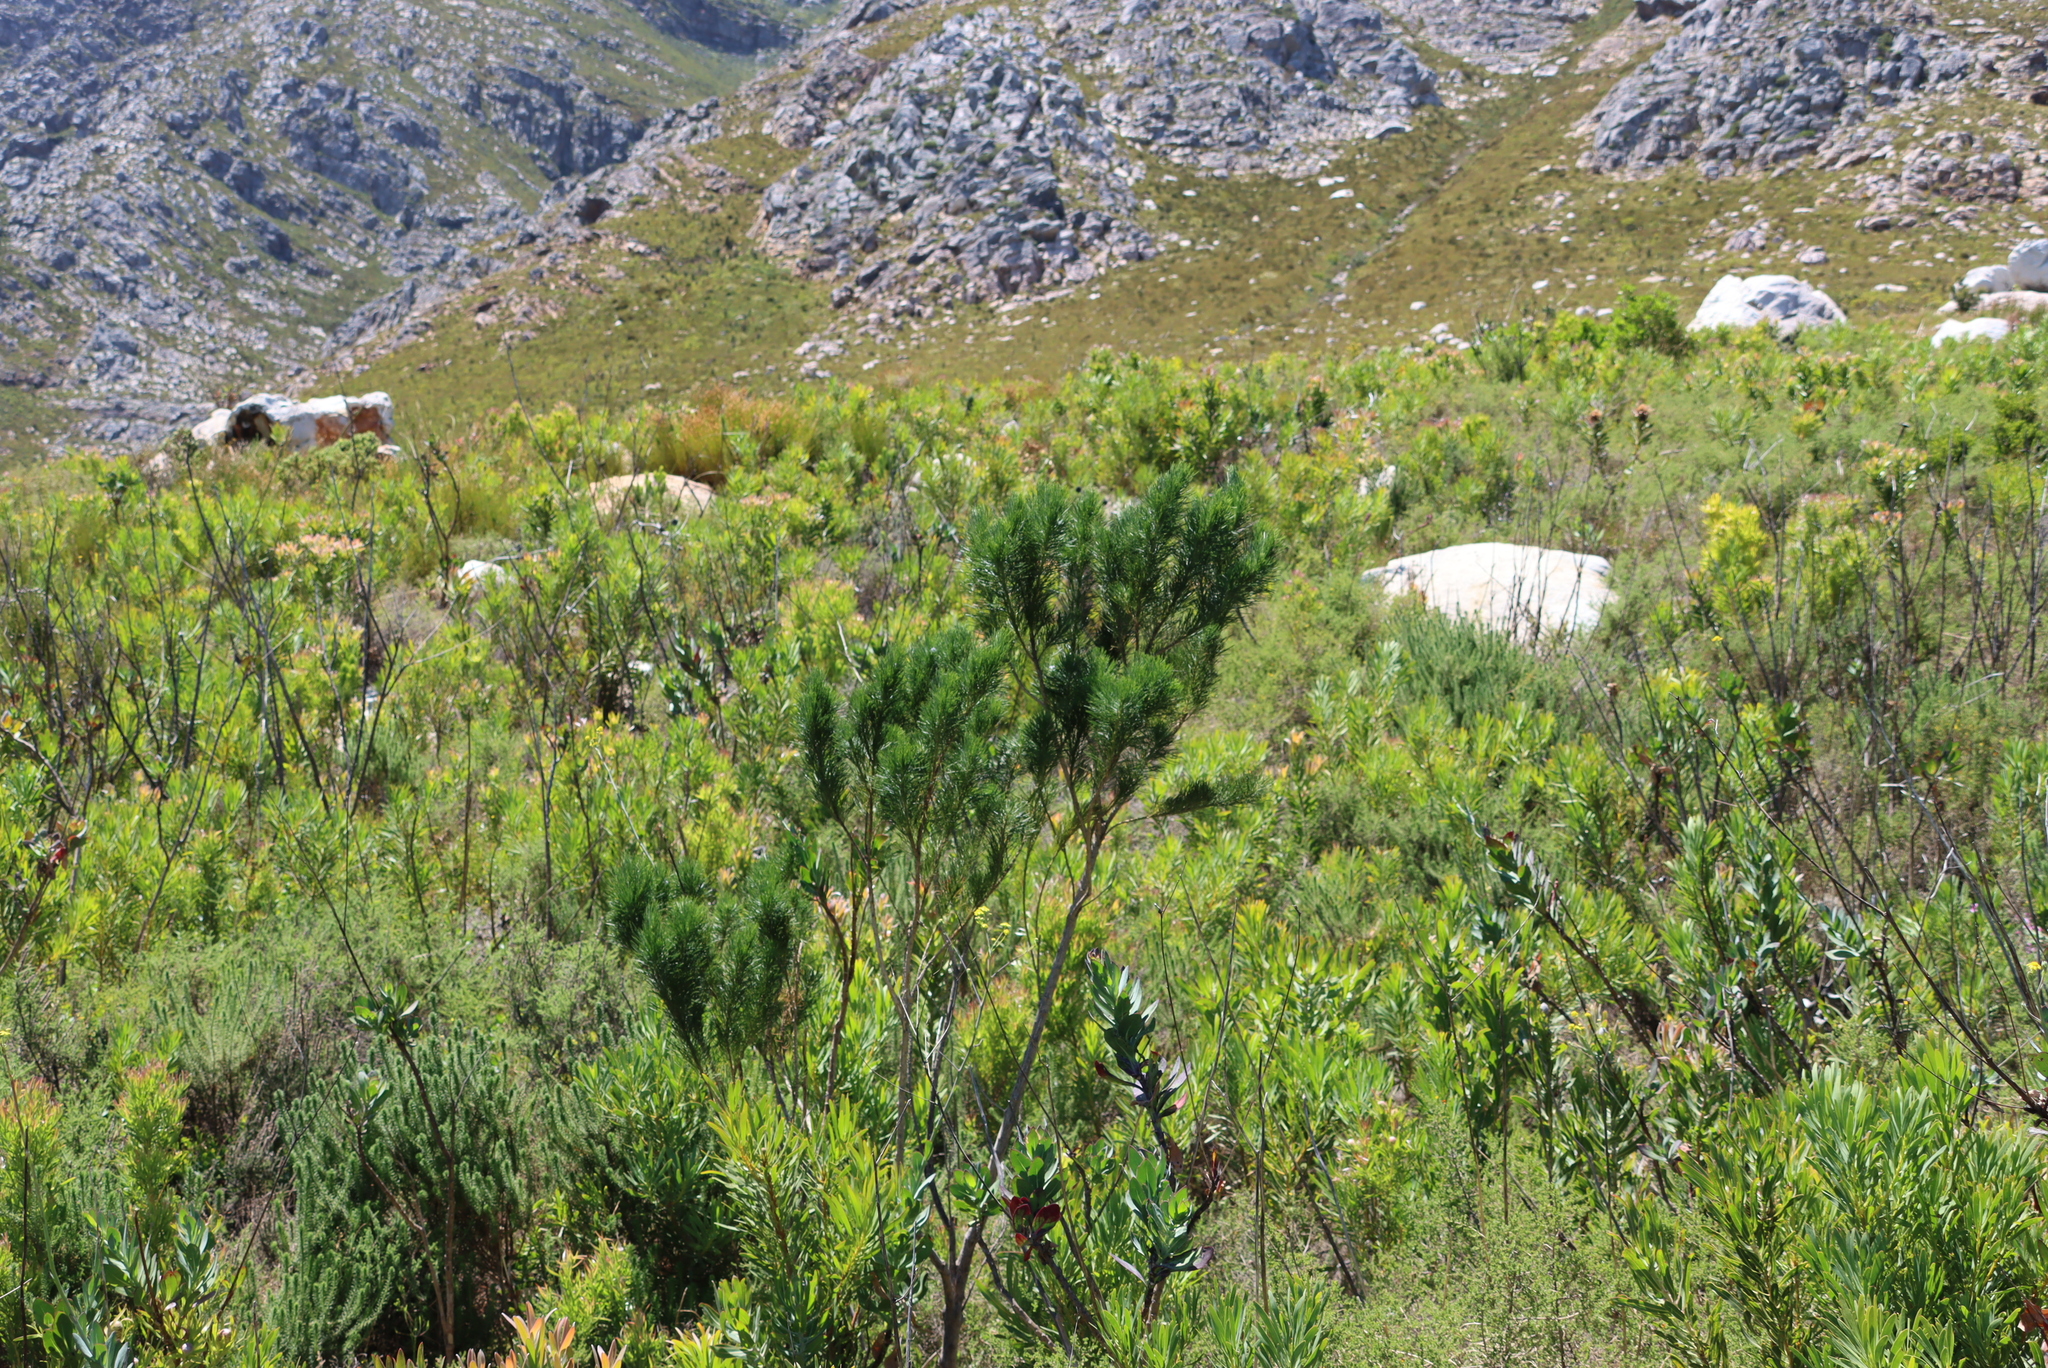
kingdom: Plantae
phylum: Tracheophyta
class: Magnoliopsida
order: Fabales
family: Fabaceae
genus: Psoralea
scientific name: Psoralea pinnata
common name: African scurfpea
